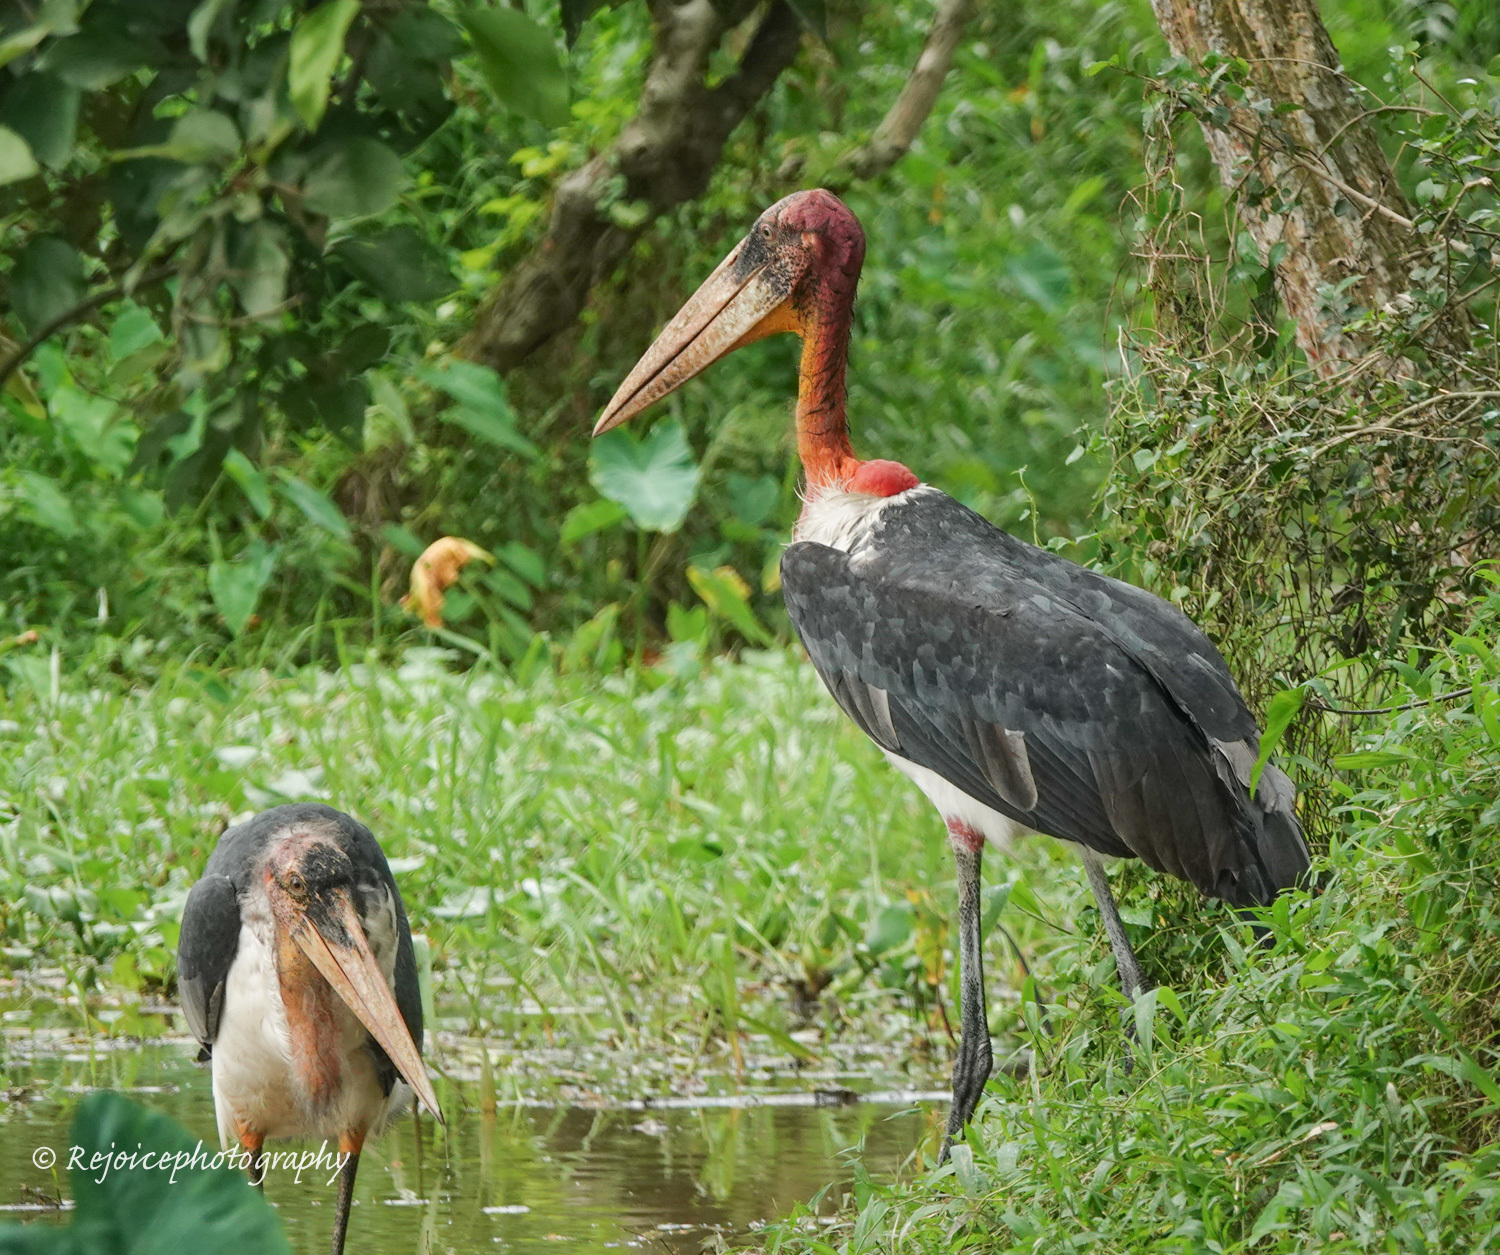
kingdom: Animalia
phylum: Chordata
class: Aves
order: Ciconiiformes
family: Ciconiidae
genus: Leptoptilos
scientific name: Leptoptilos dubius
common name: Greater adjutant
